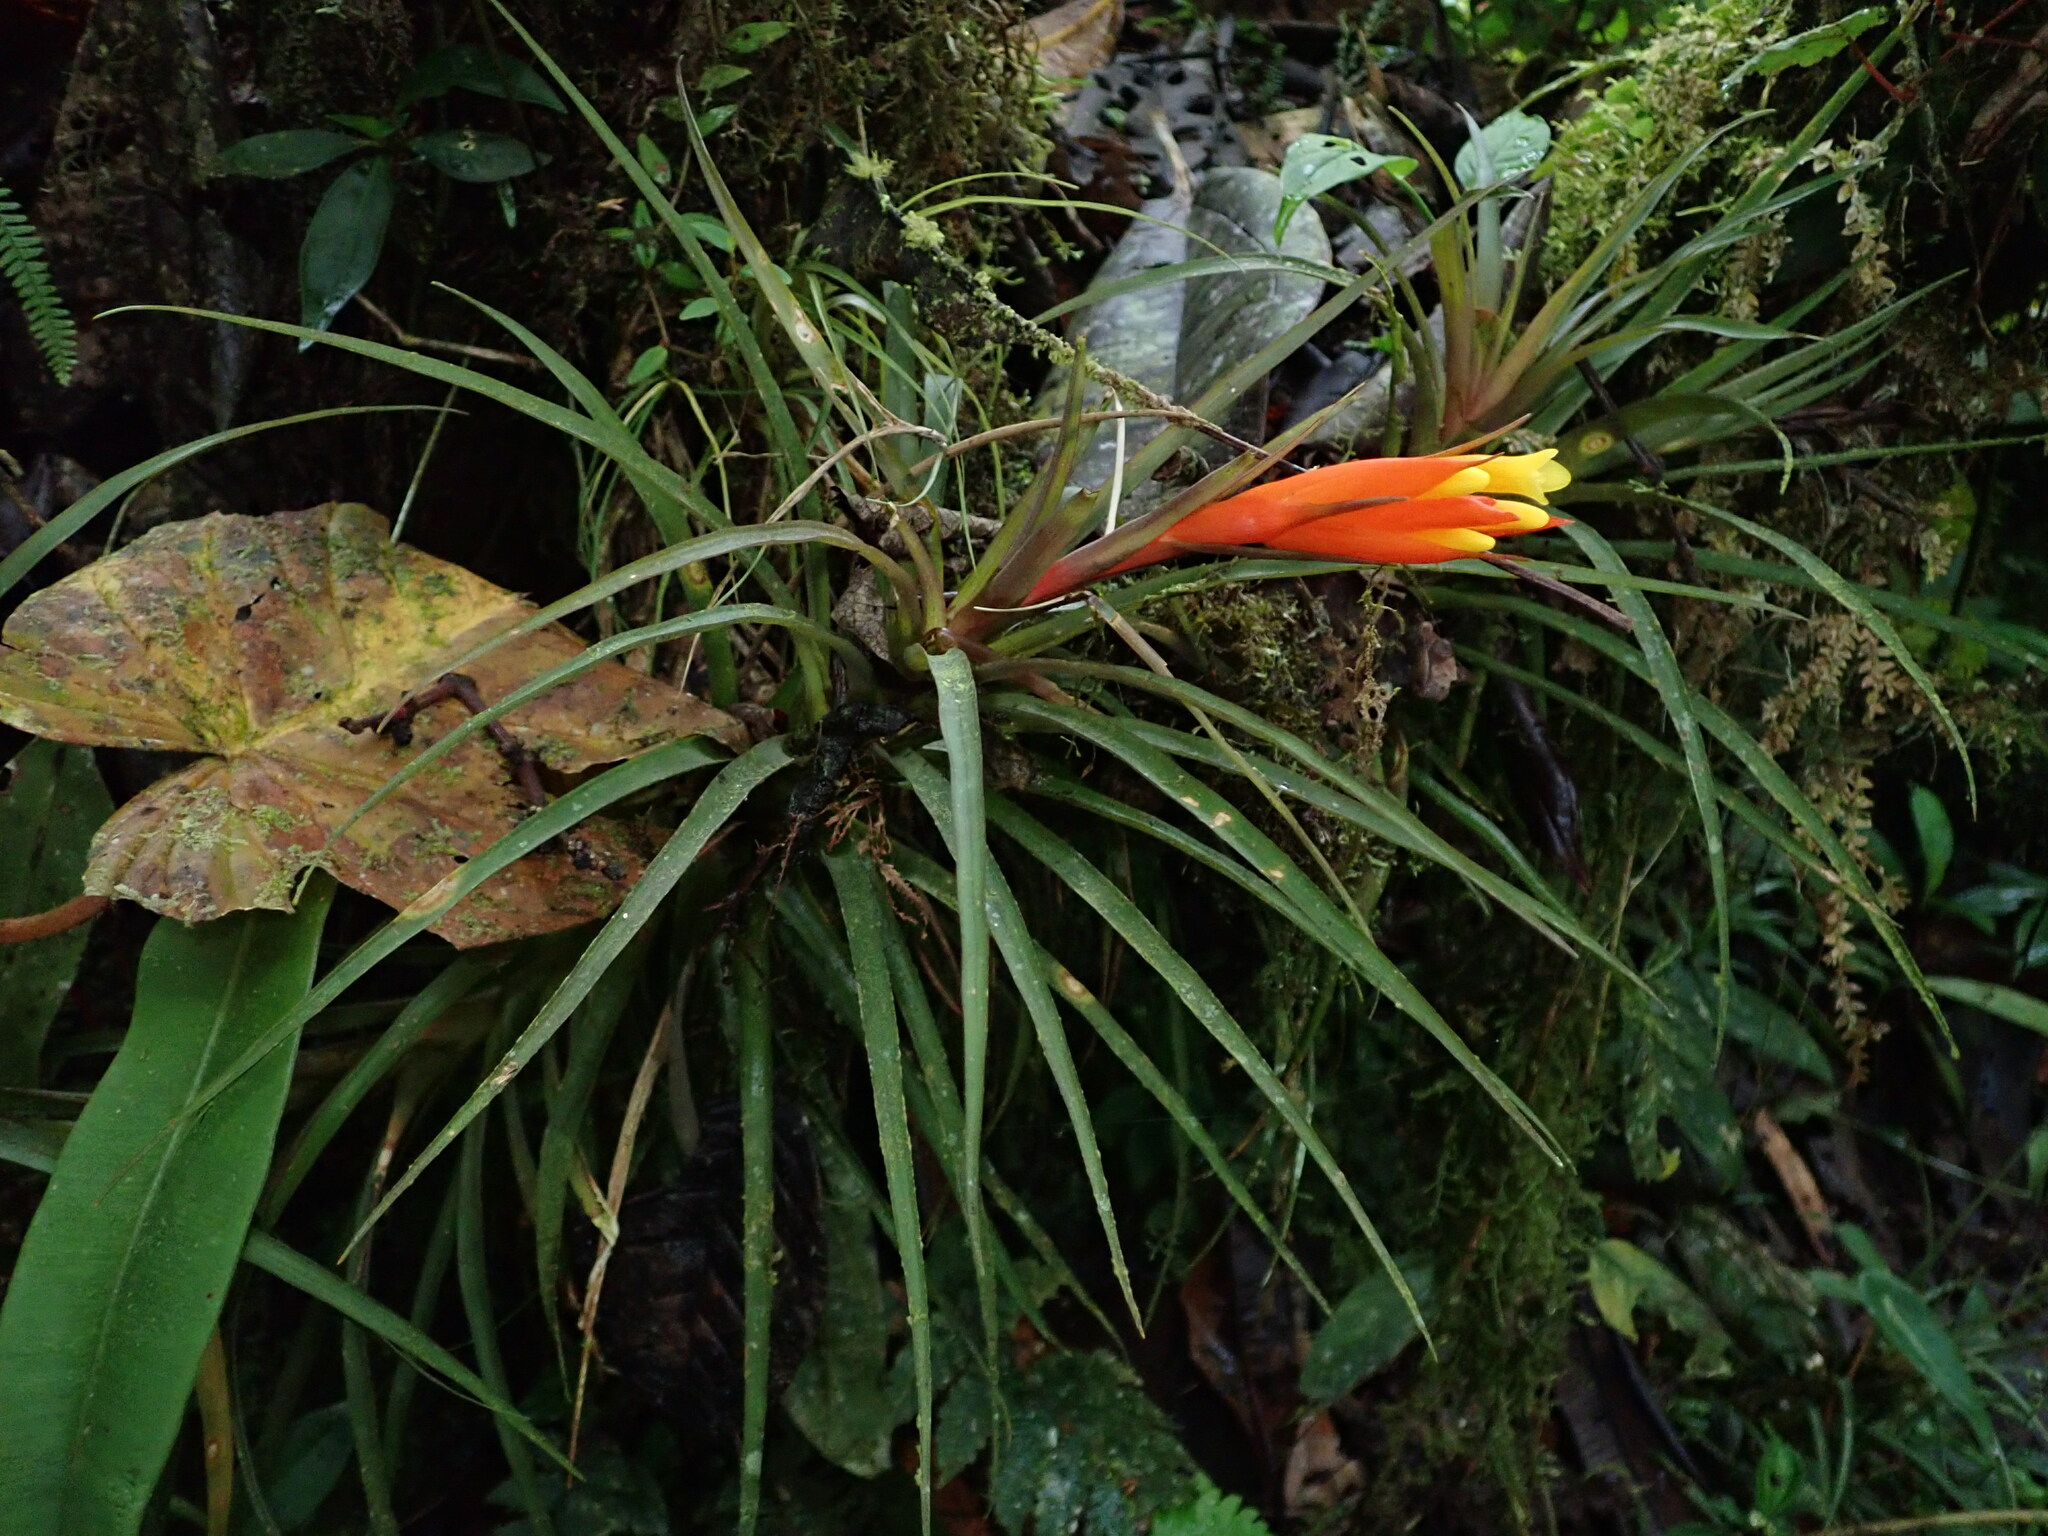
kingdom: Plantae
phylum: Tracheophyta
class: Liliopsida
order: Poales
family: Bromeliaceae
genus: Guzmania
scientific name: Guzmania angustifolia
